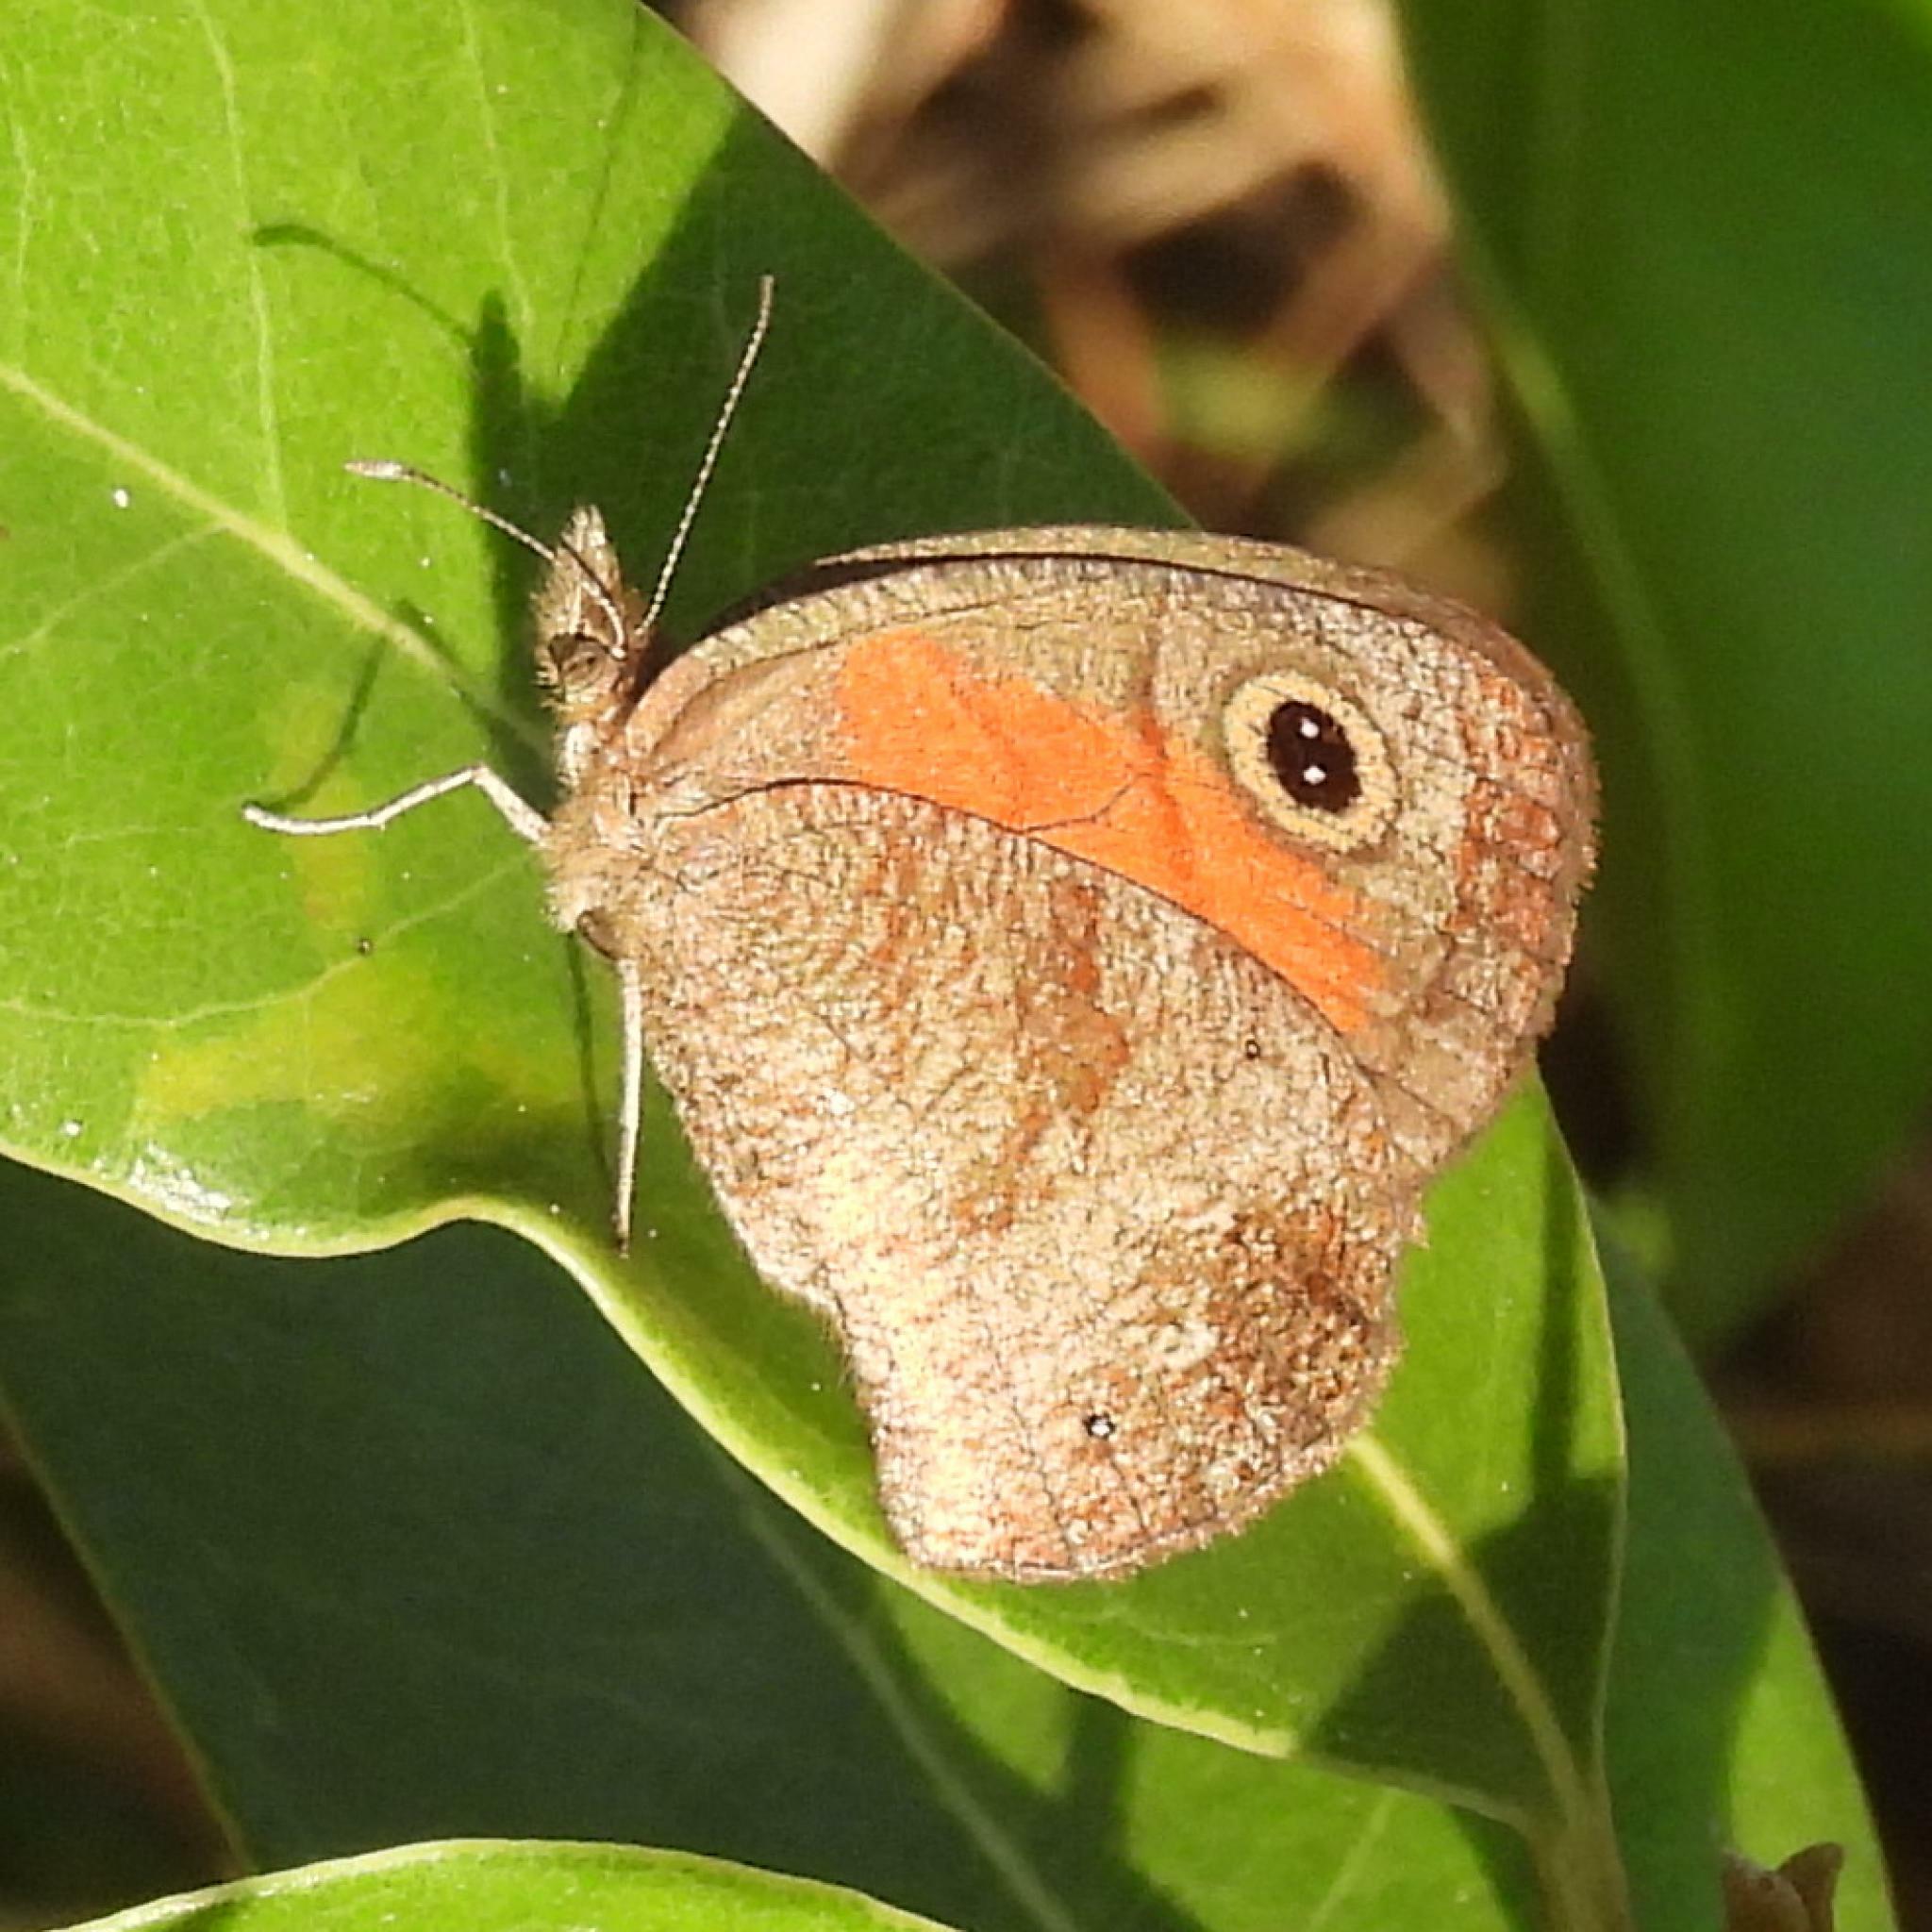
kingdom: Animalia
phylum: Arthropoda
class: Insecta
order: Lepidoptera
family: Nymphalidae
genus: Cassionympha
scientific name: Cassionympha cassius
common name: Rainforest brown
